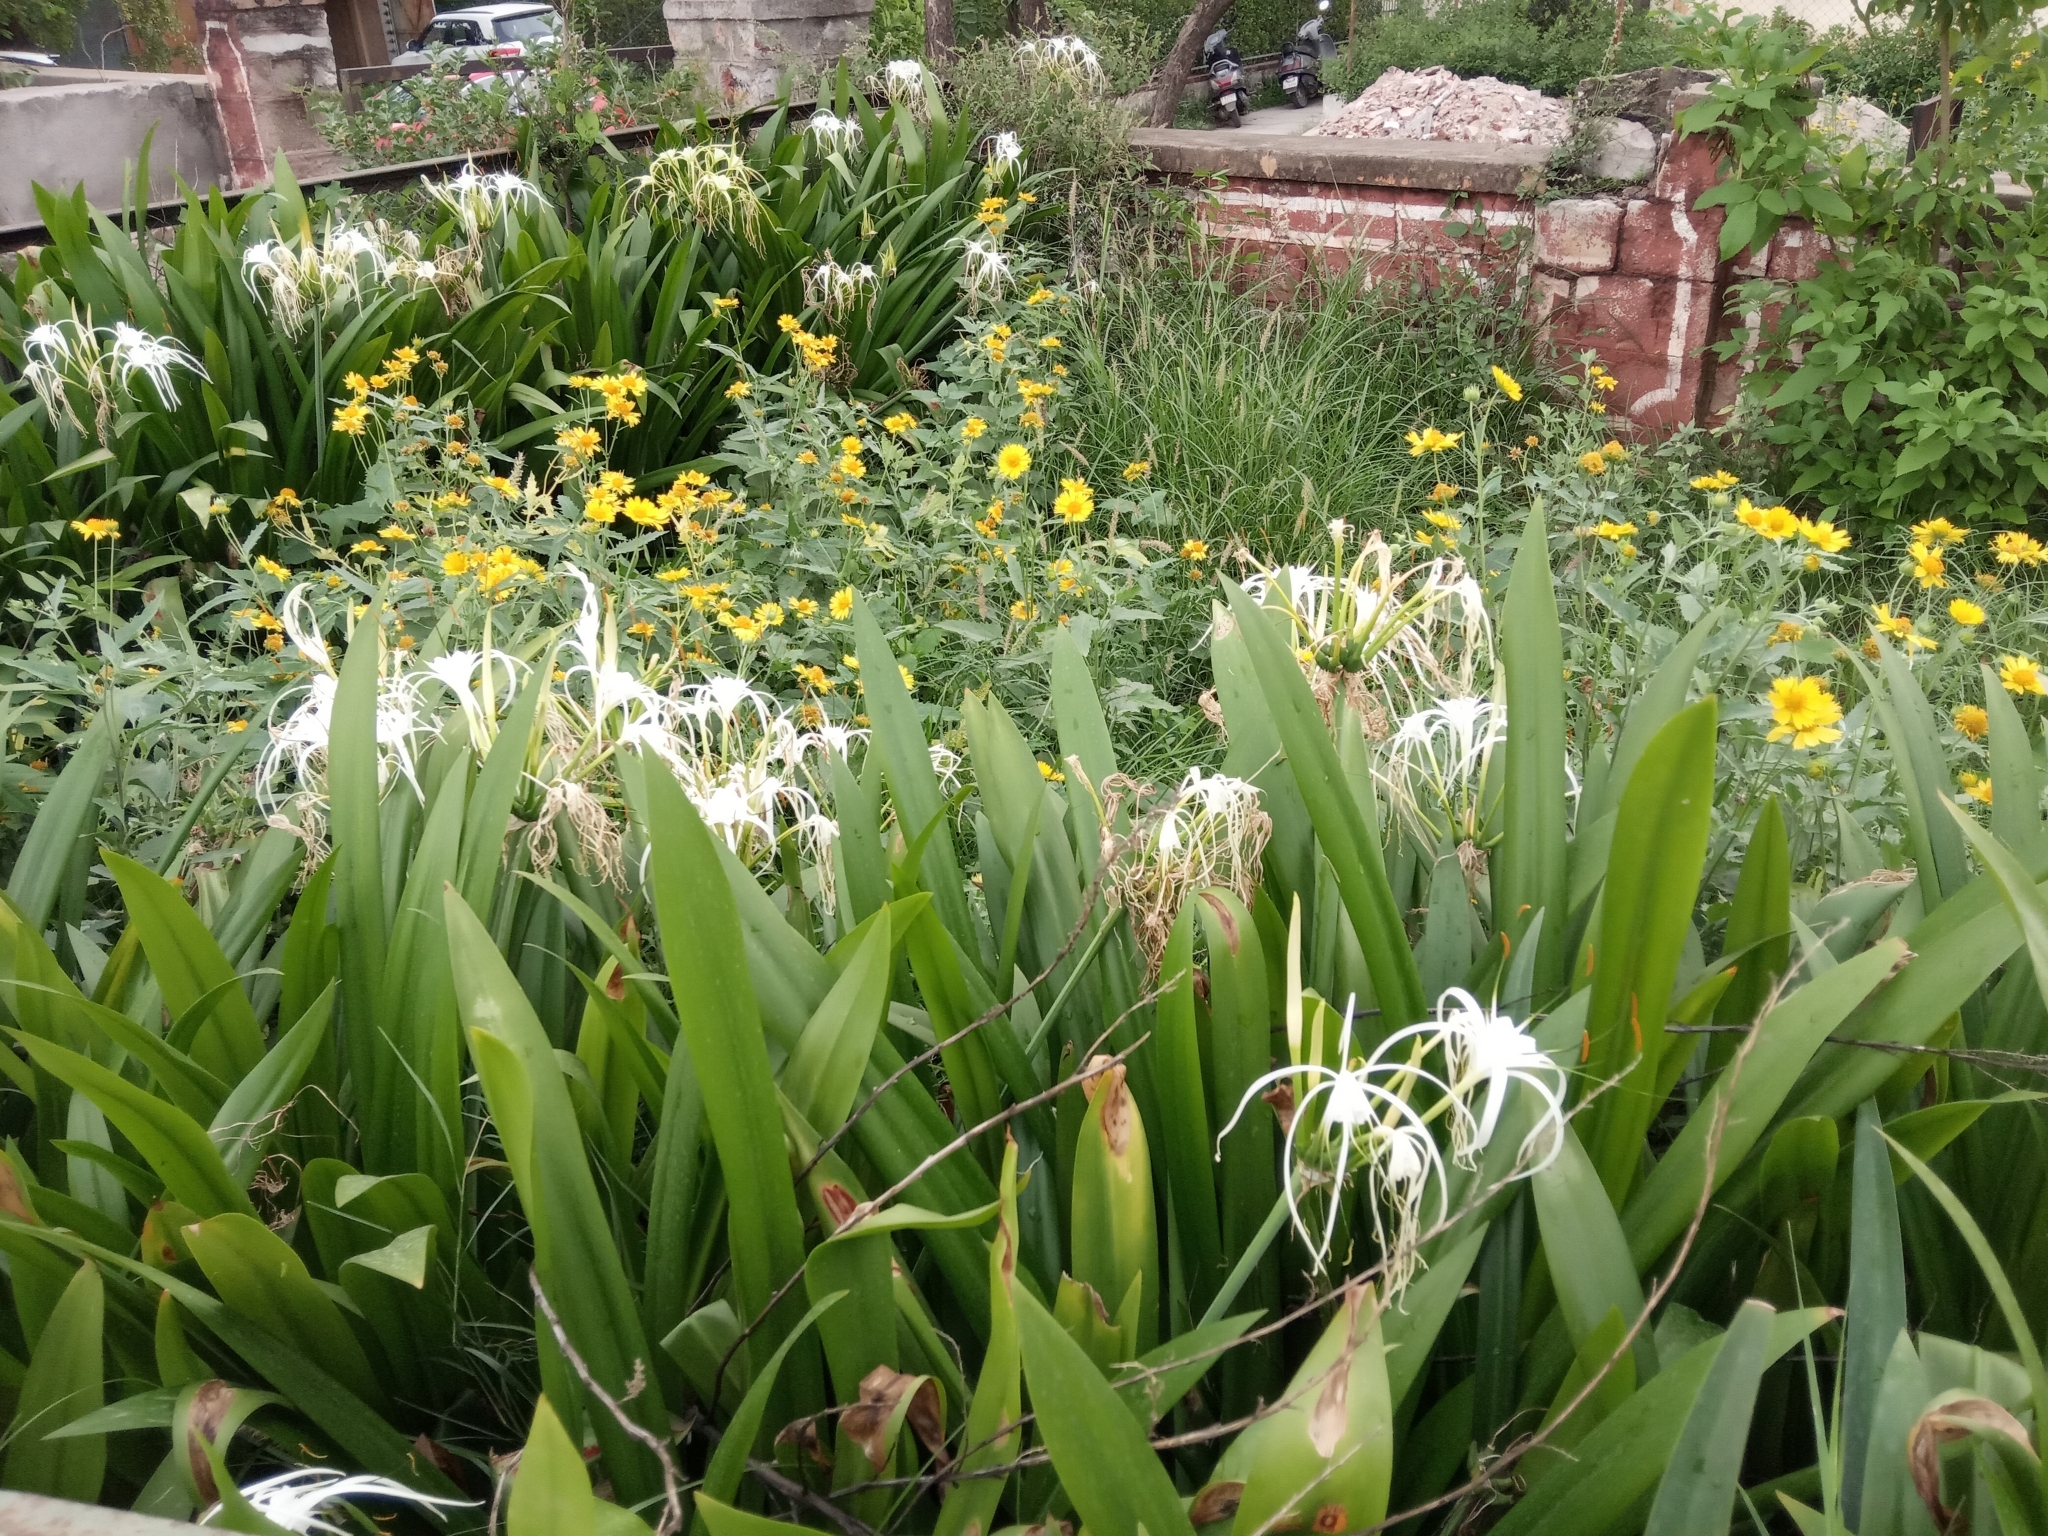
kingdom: Plantae
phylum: Tracheophyta
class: Liliopsida
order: Asparagales
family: Amaryllidaceae
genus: Hymenocallis
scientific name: Hymenocallis latifolia
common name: Cayman islands spider-lily
